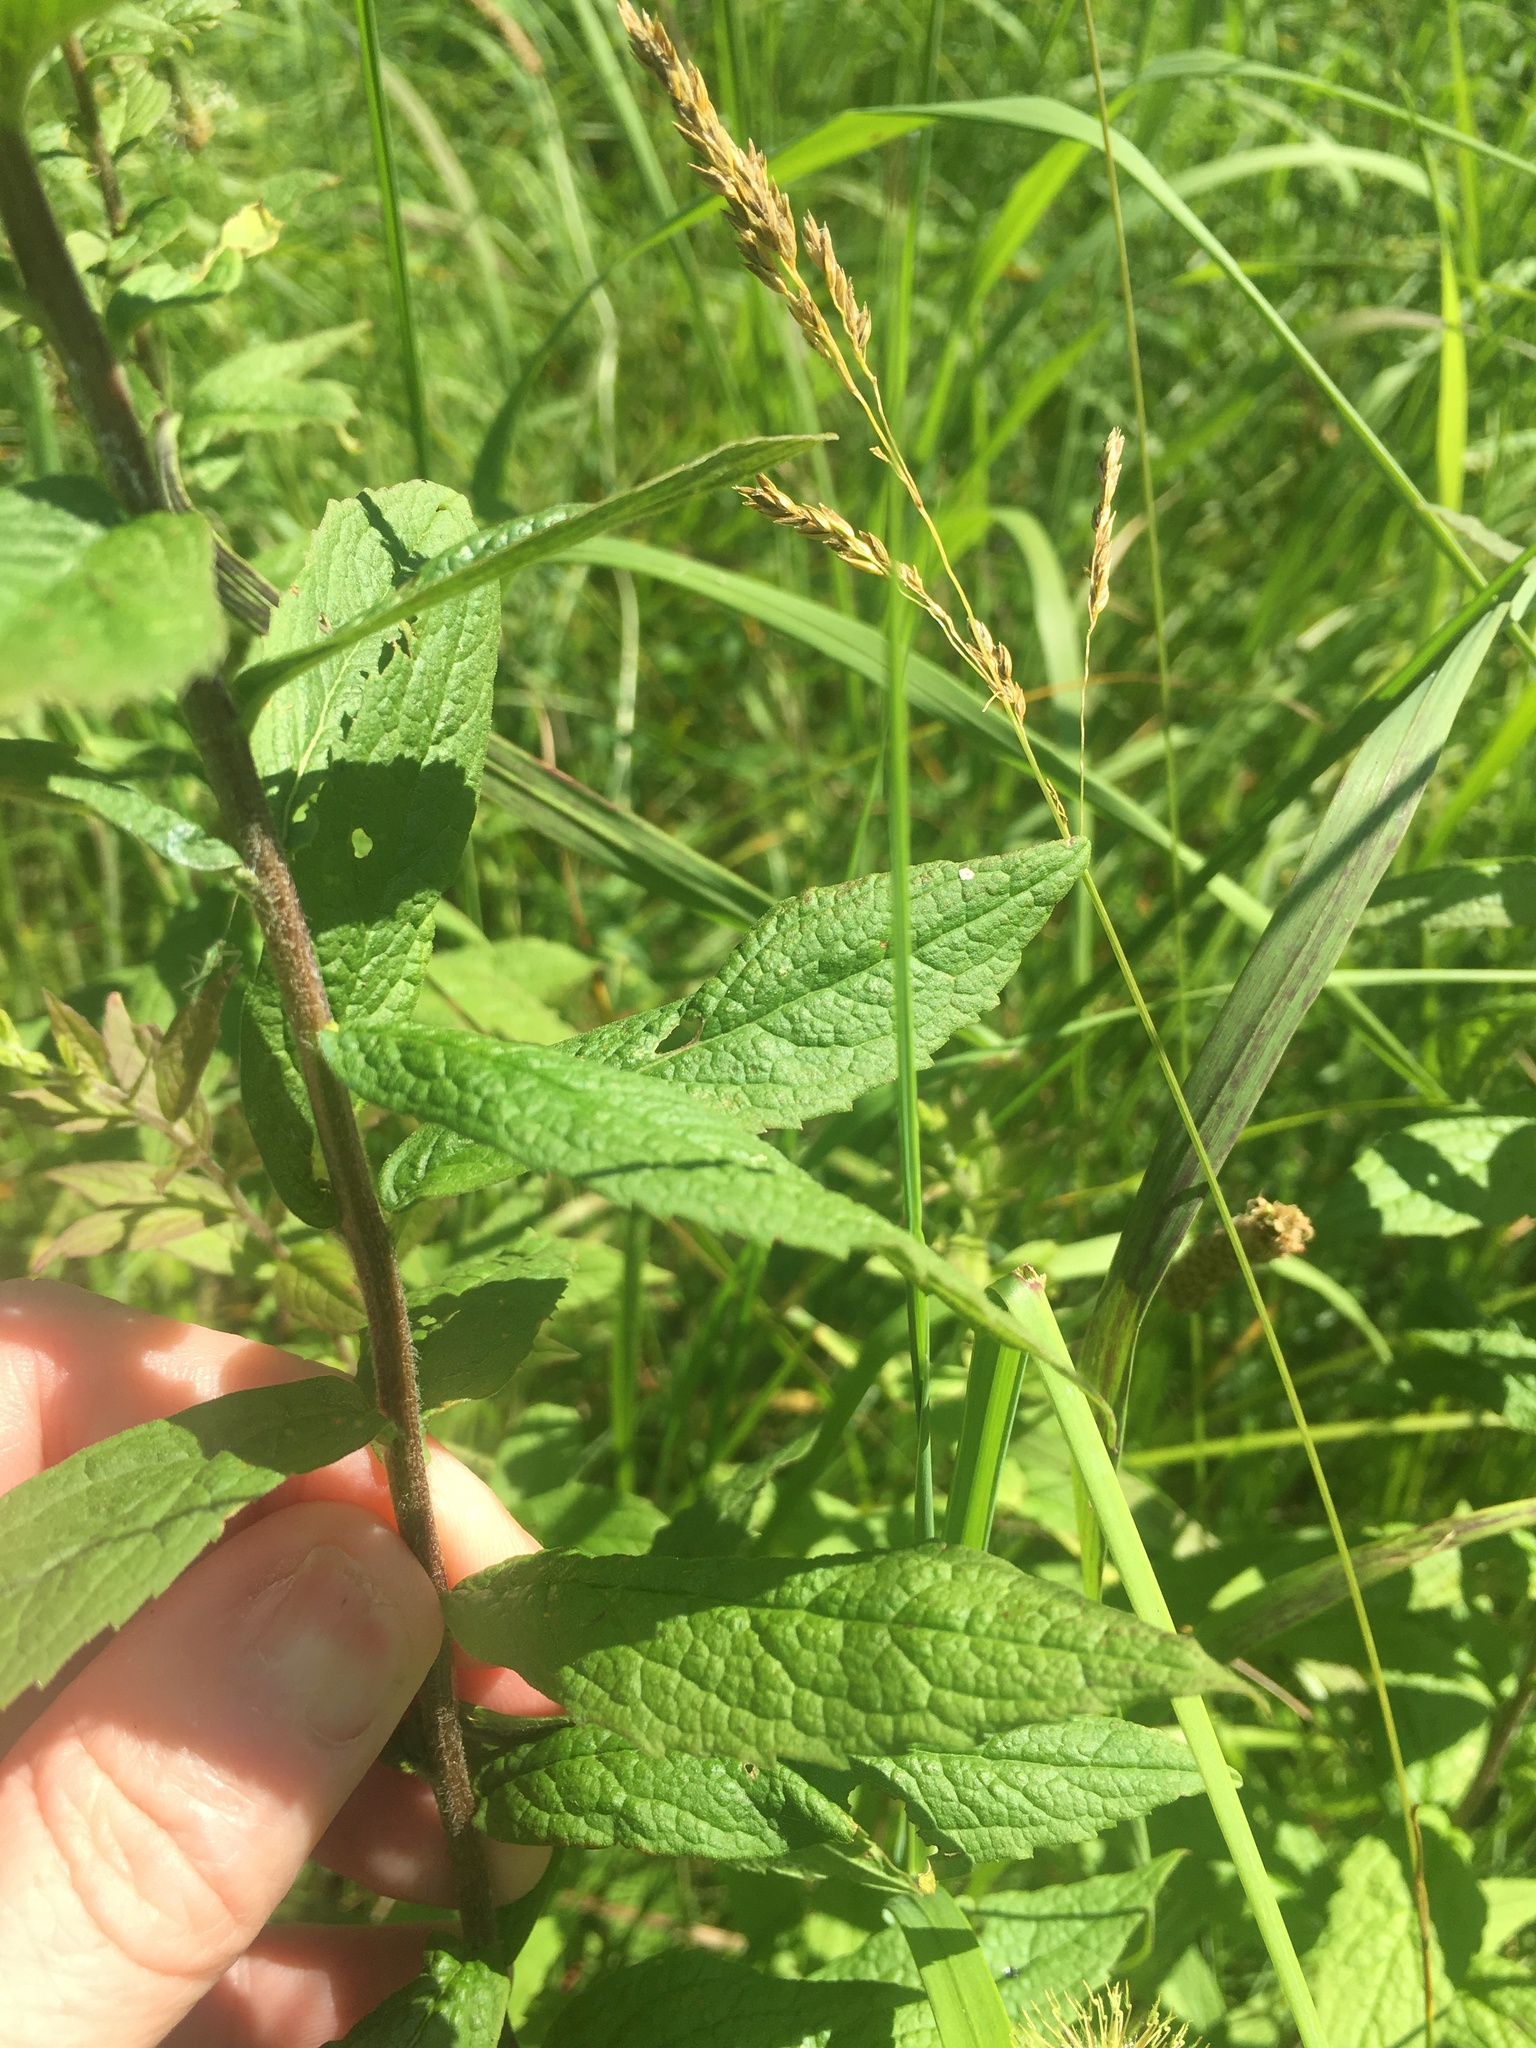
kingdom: Plantae
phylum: Tracheophyta
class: Magnoliopsida
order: Asterales
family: Asteraceae
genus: Solidago
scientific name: Solidago rugosa
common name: Rough-stemmed goldenrod
